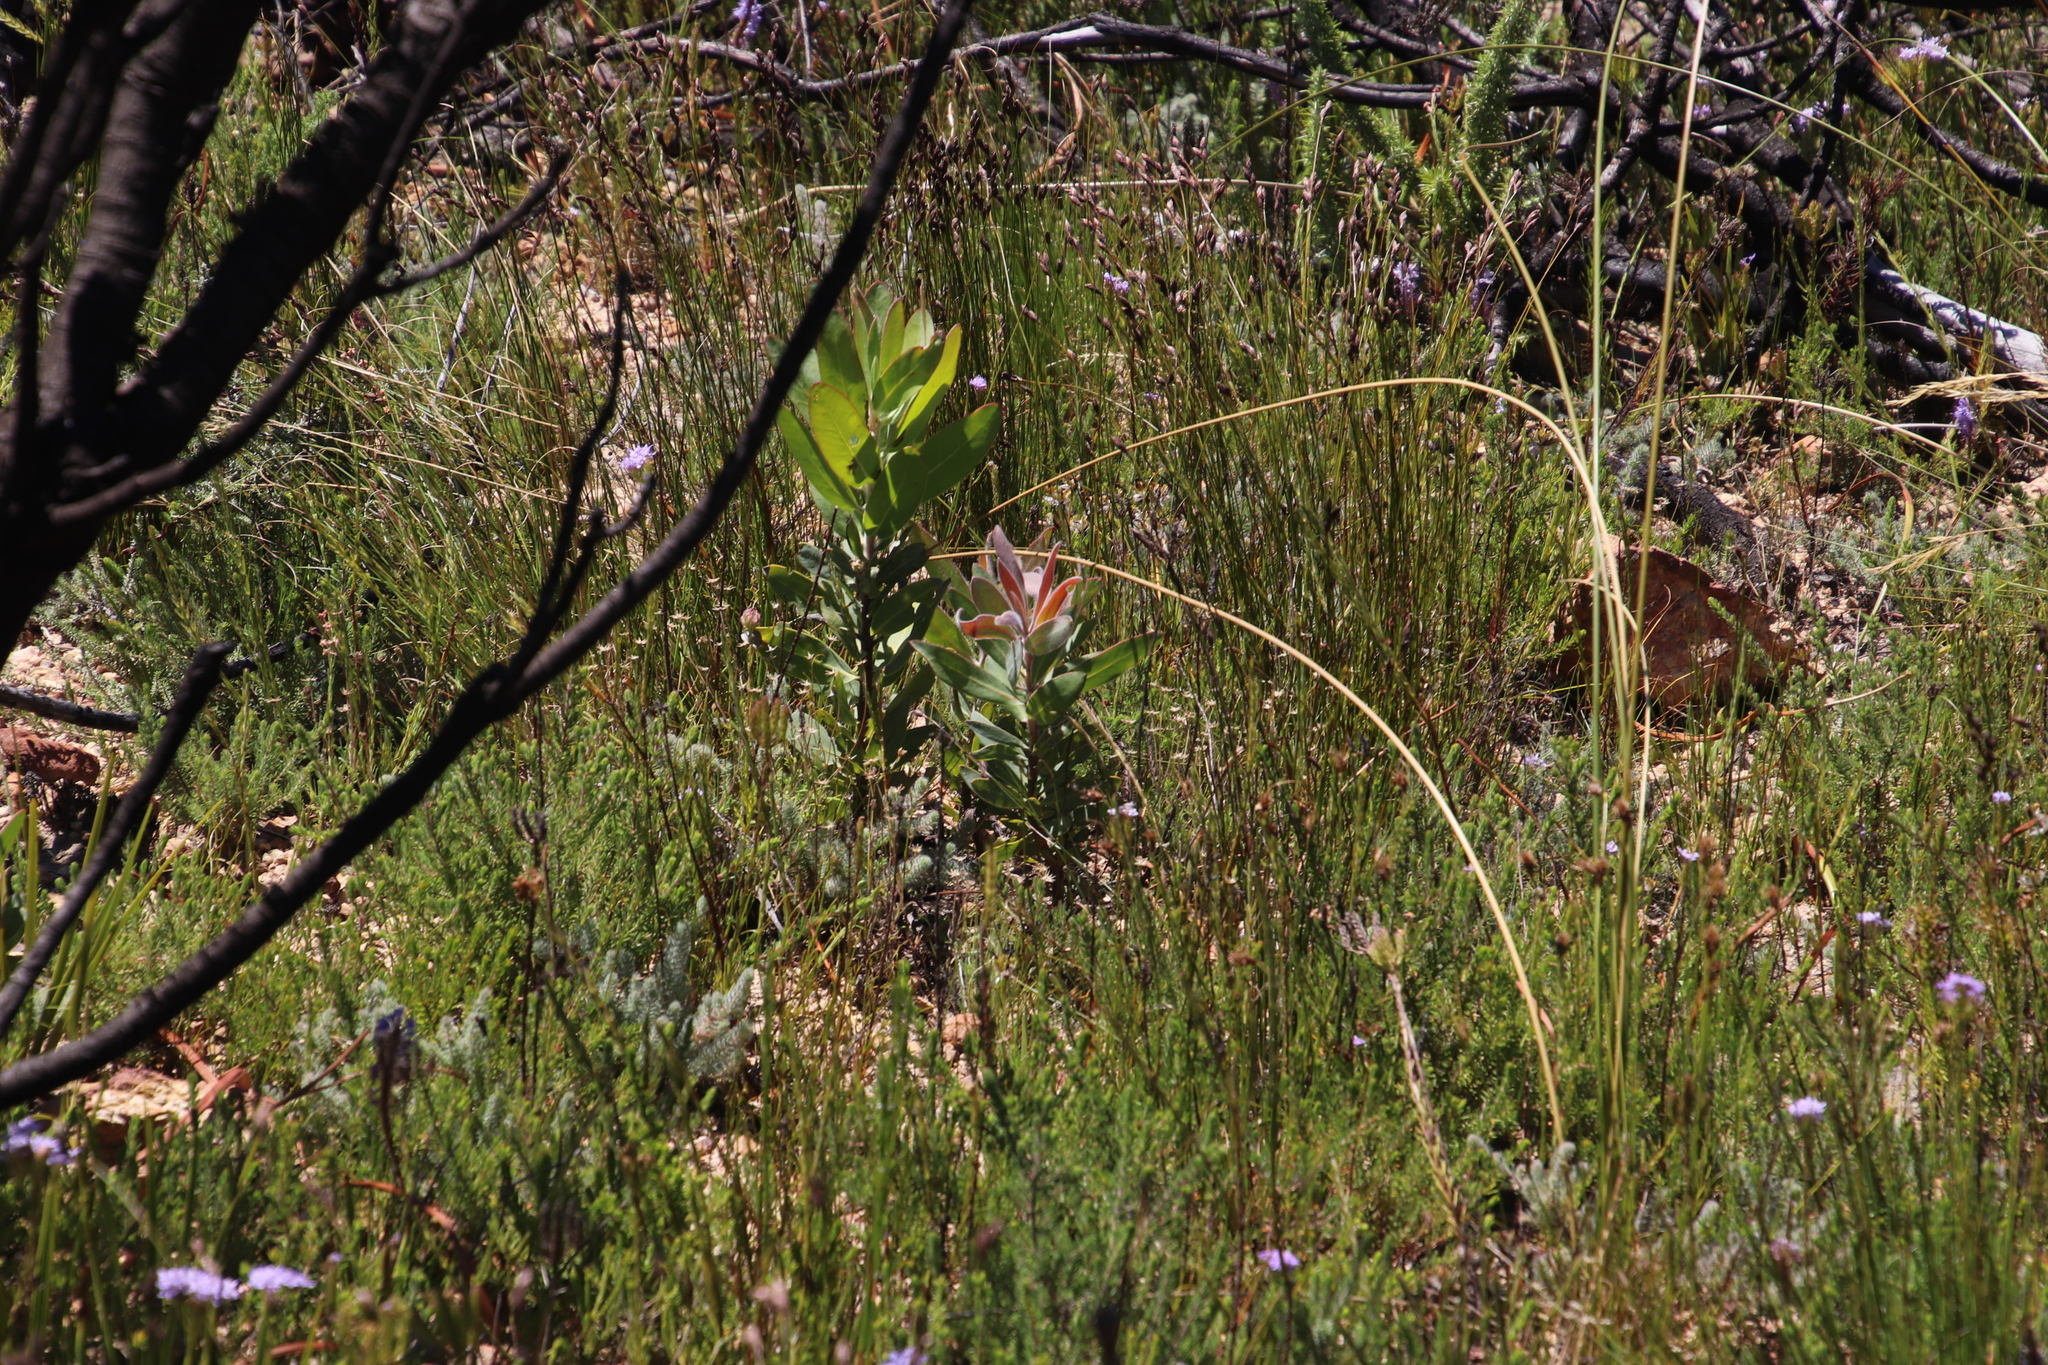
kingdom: Plantae
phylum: Tracheophyta
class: Magnoliopsida
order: Proteales
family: Proteaceae
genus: Protea
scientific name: Protea laurifolia
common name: Grey-leaf sugarbsh
